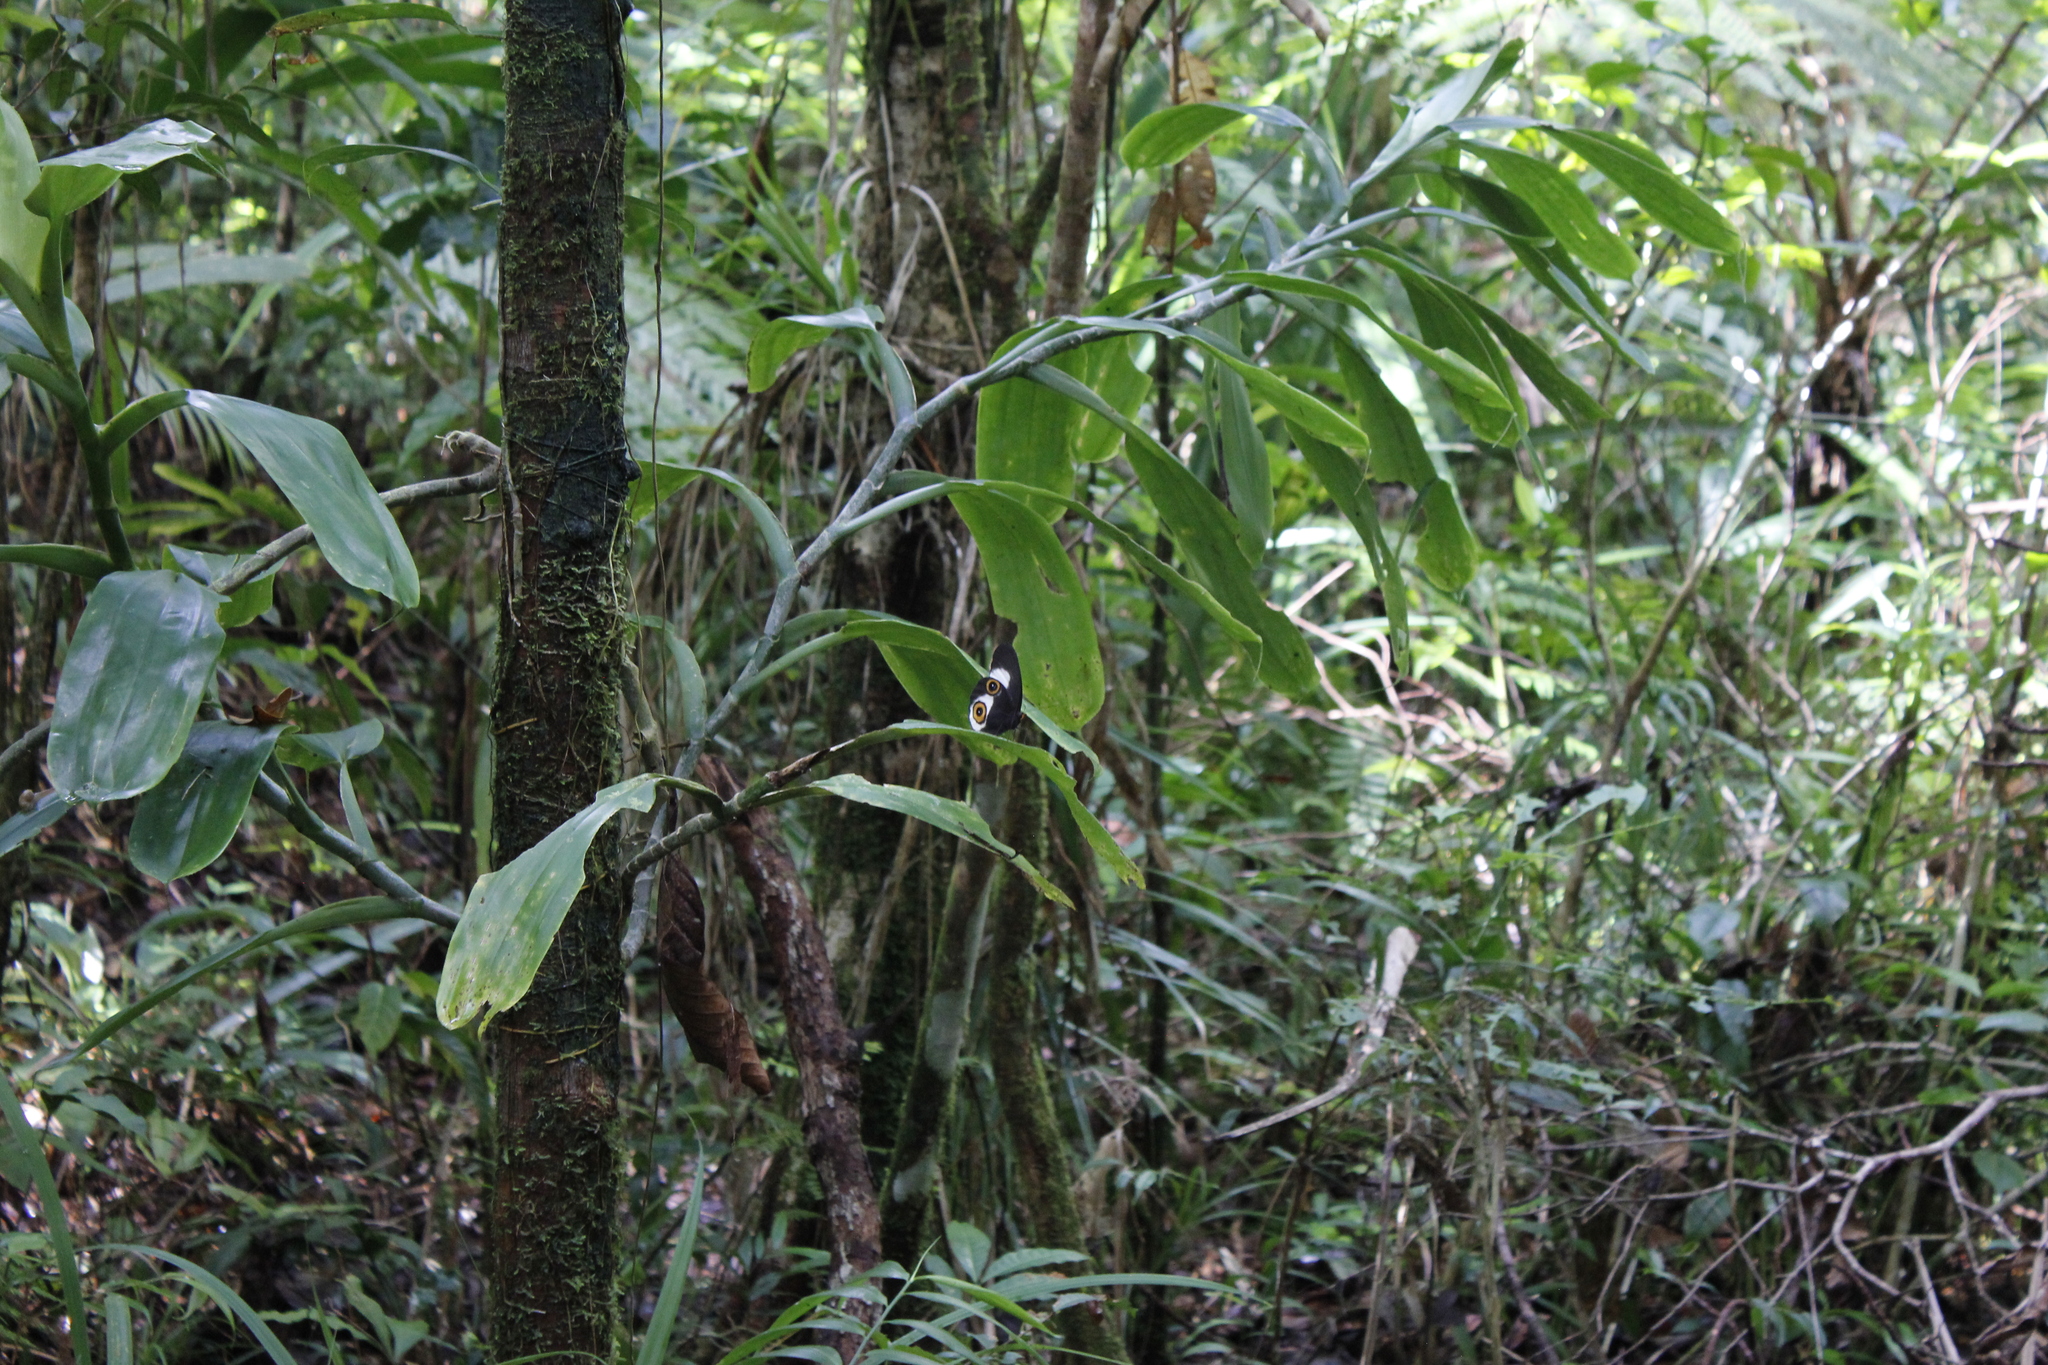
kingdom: Animalia
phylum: Arthropoda
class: Insecta
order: Lepidoptera
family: Nymphalidae
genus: Taenaris
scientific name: Taenaris phorcas
